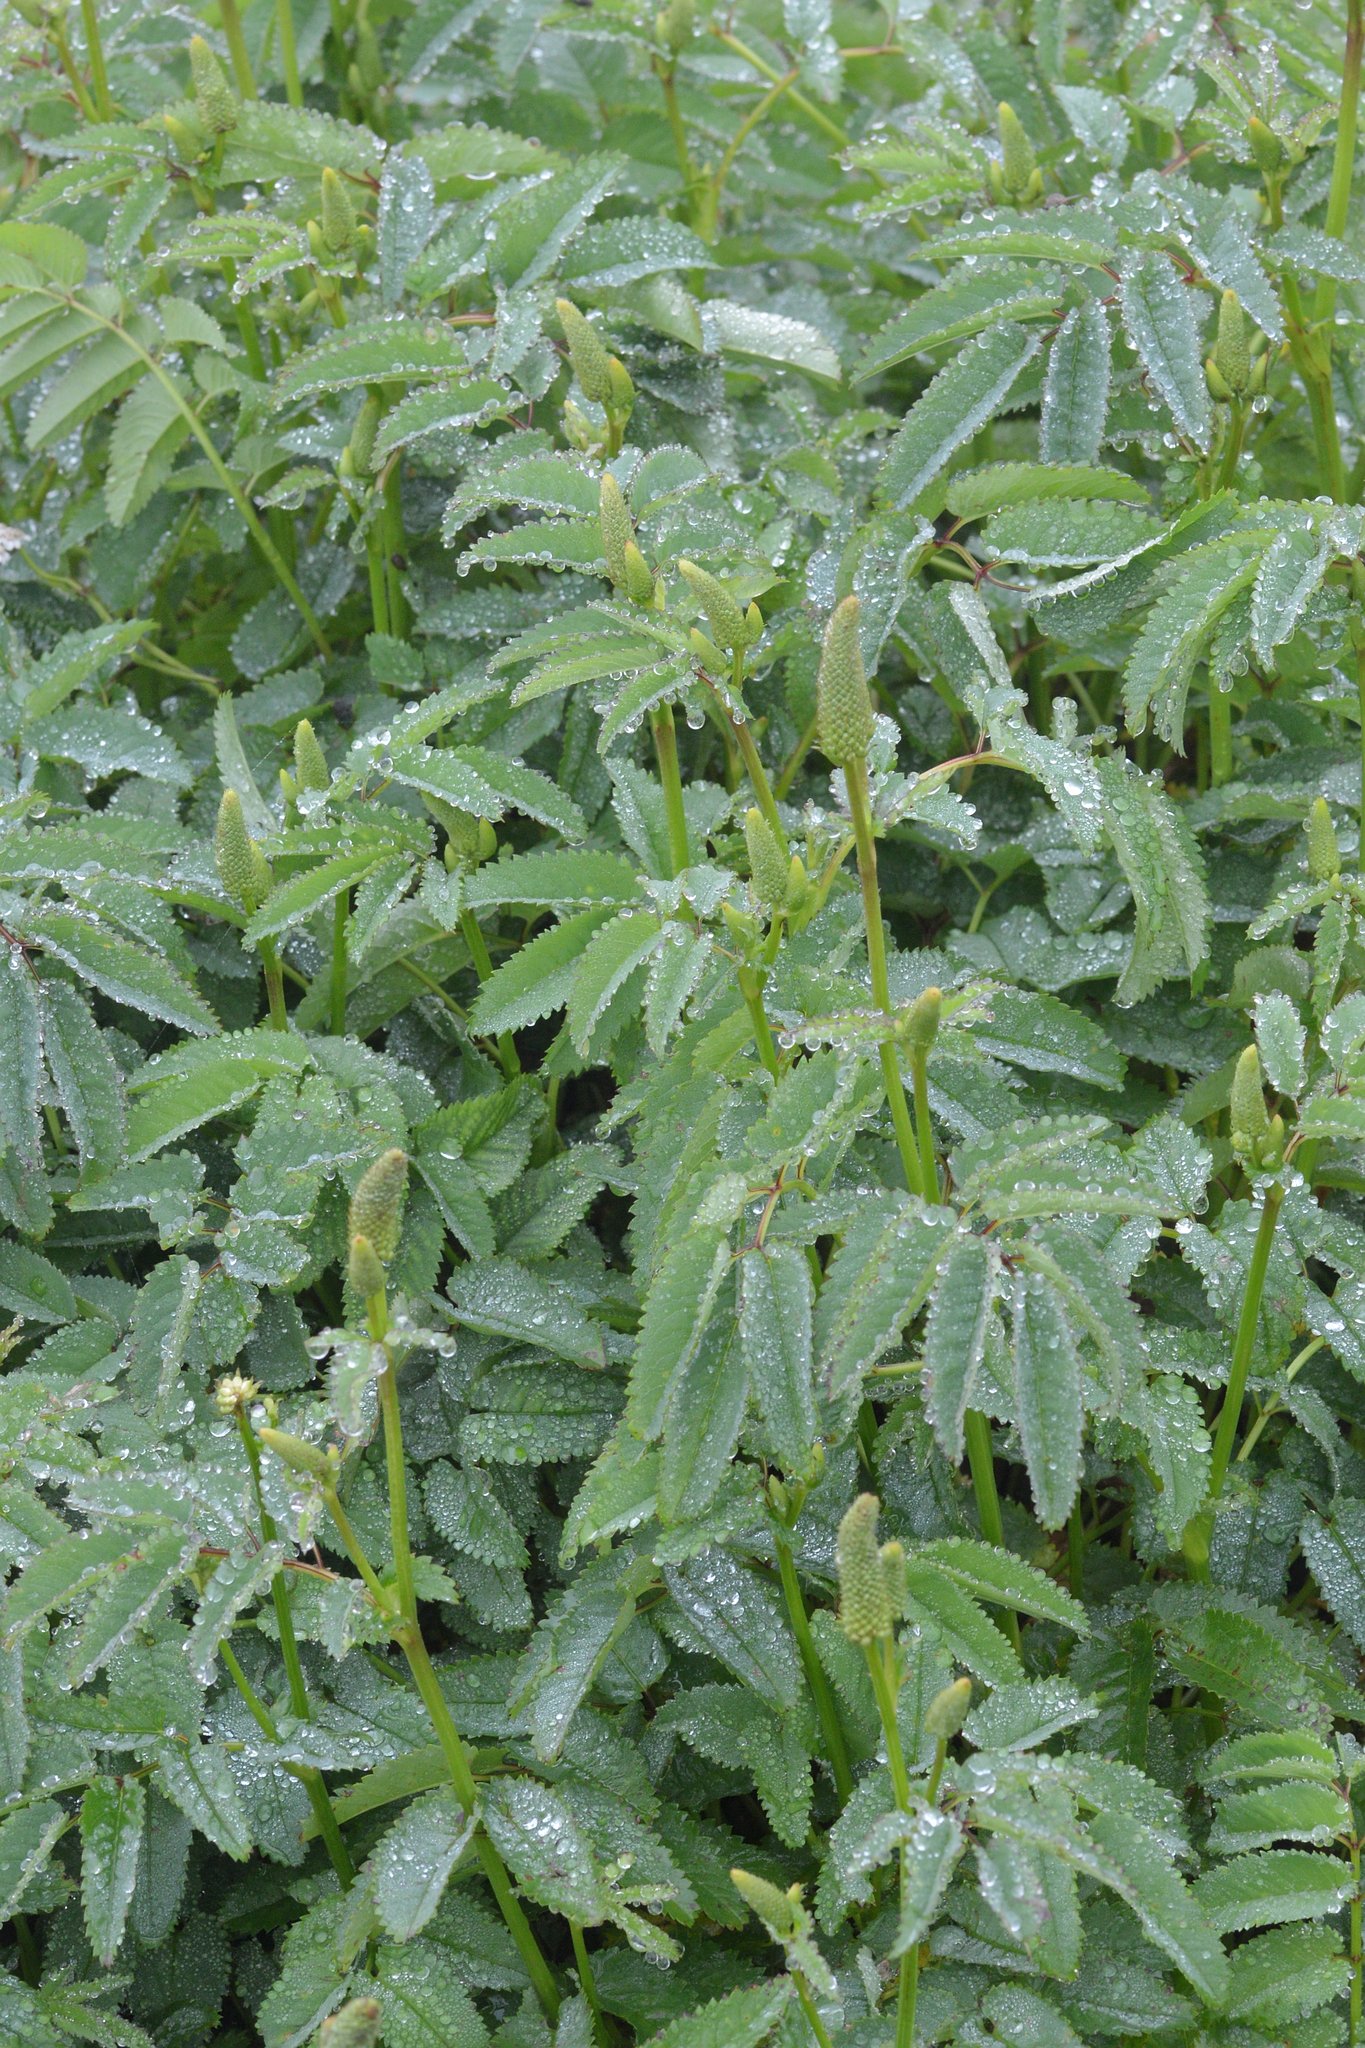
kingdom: Plantae
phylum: Tracheophyta
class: Magnoliopsida
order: Rosales
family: Rosaceae
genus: Sanguisorba
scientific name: Sanguisorba canadensis
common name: White burnet
